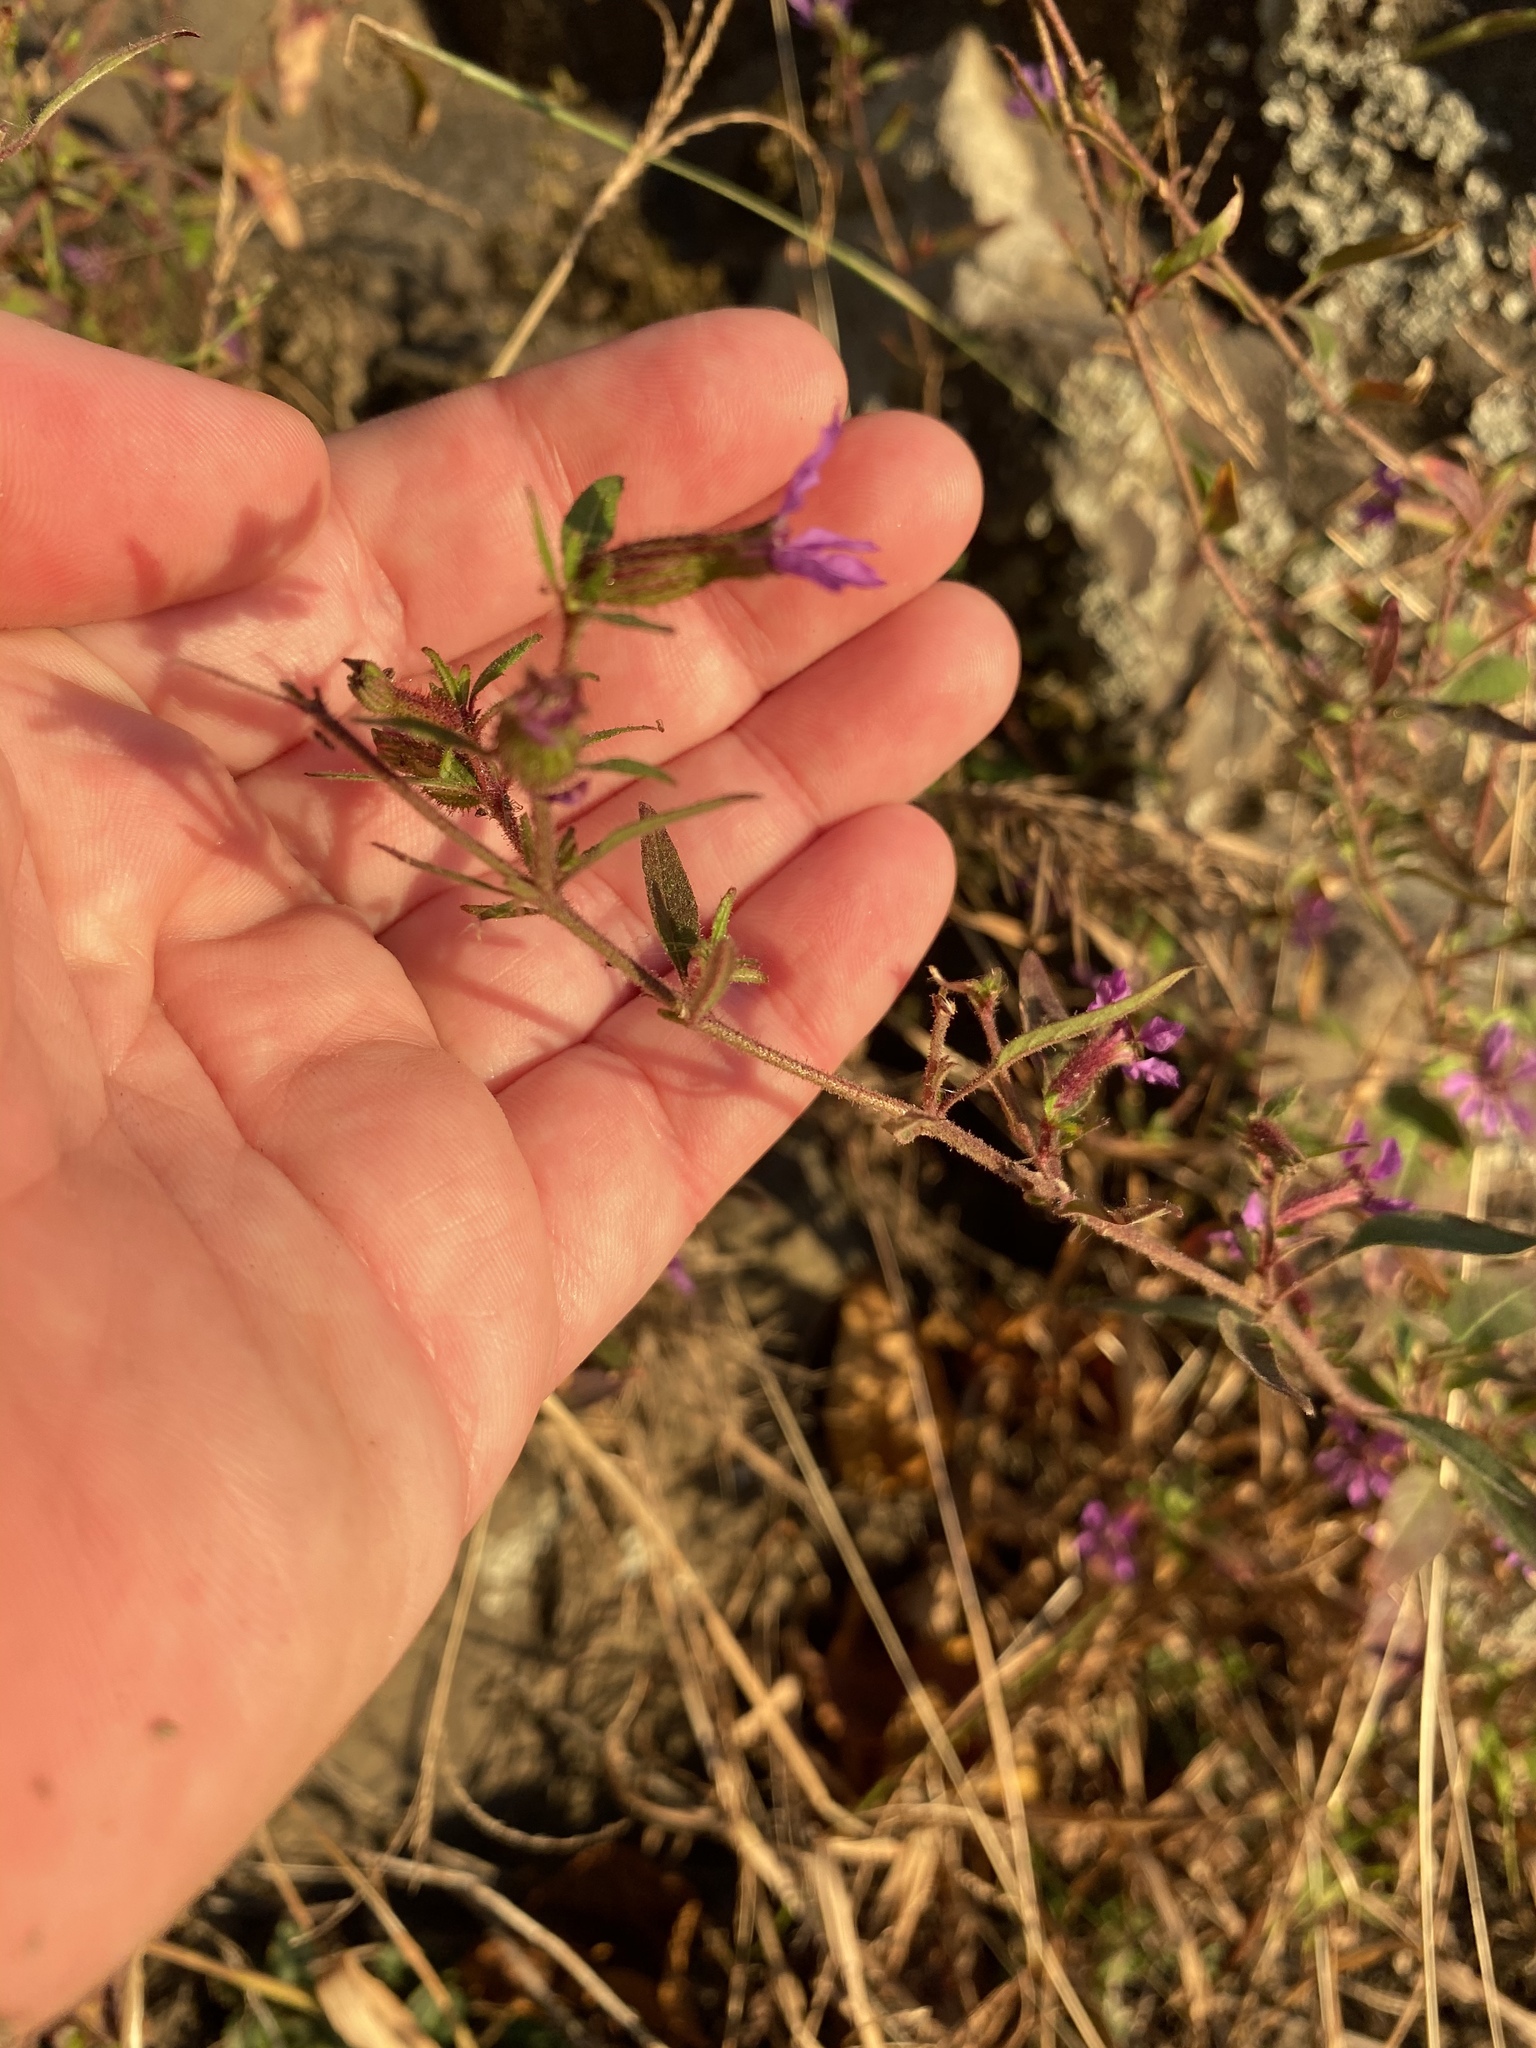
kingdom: Plantae
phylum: Tracheophyta
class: Magnoliopsida
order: Myrtales
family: Lythraceae
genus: Cuphea
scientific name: Cuphea viscosissima
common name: Clammy cuphea
